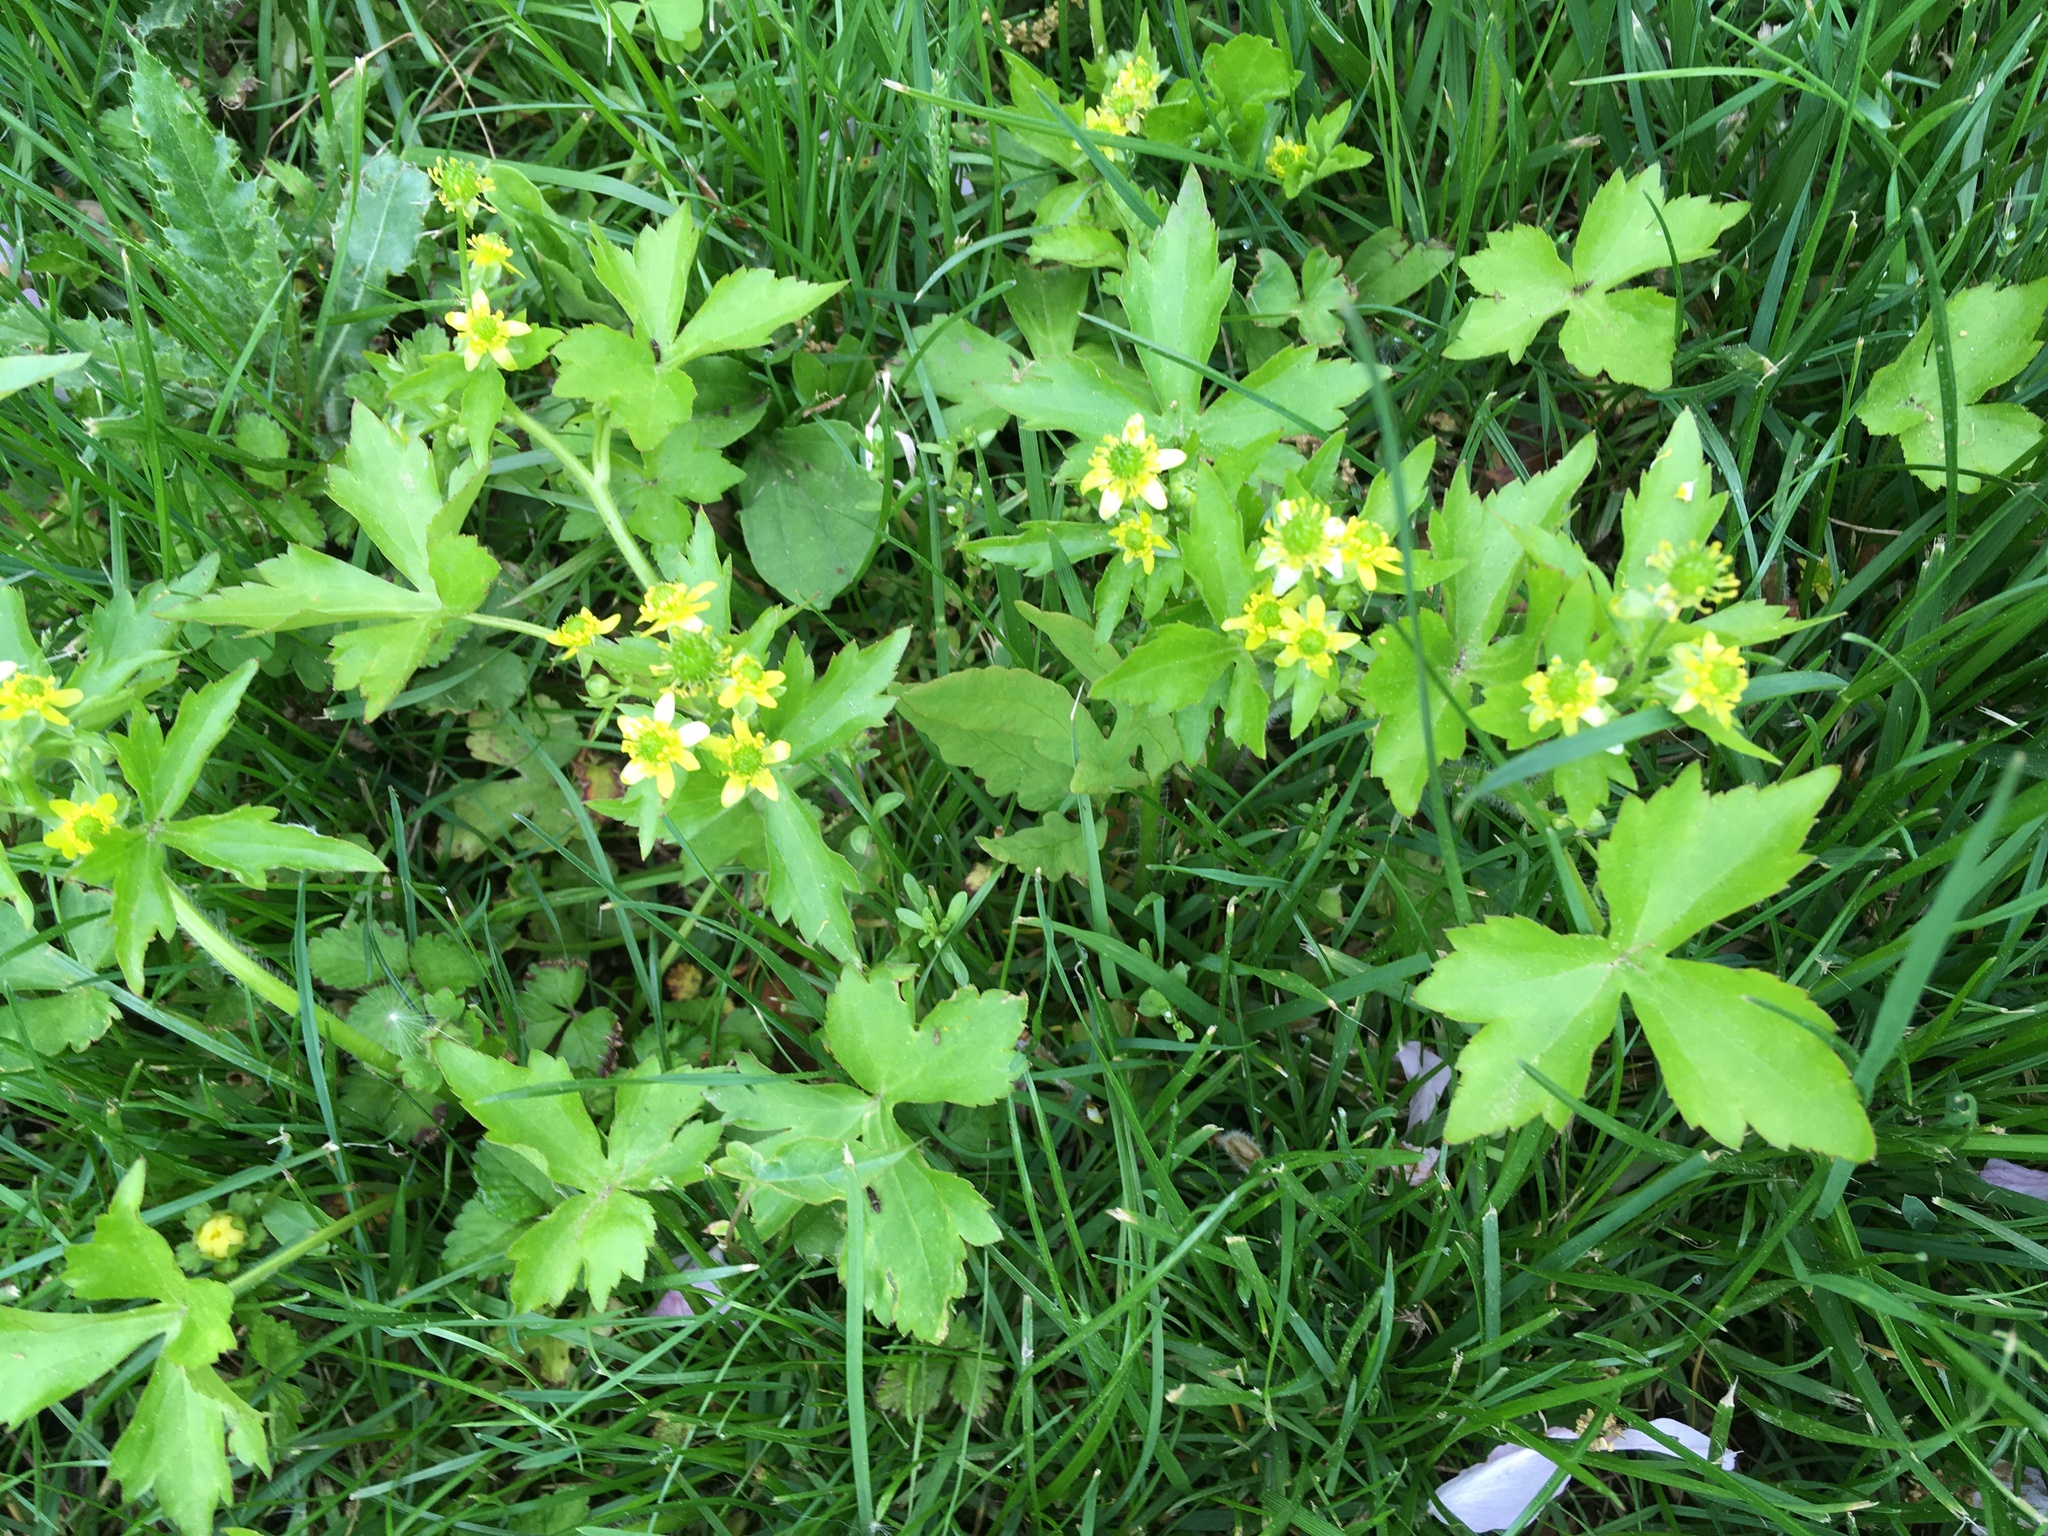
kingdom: Plantae
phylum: Tracheophyta
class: Magnoliopsida
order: Ranunculales
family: Ranunculaceae
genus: Ranunculus
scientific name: Ranunculus recurvatus
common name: Blisterwort
